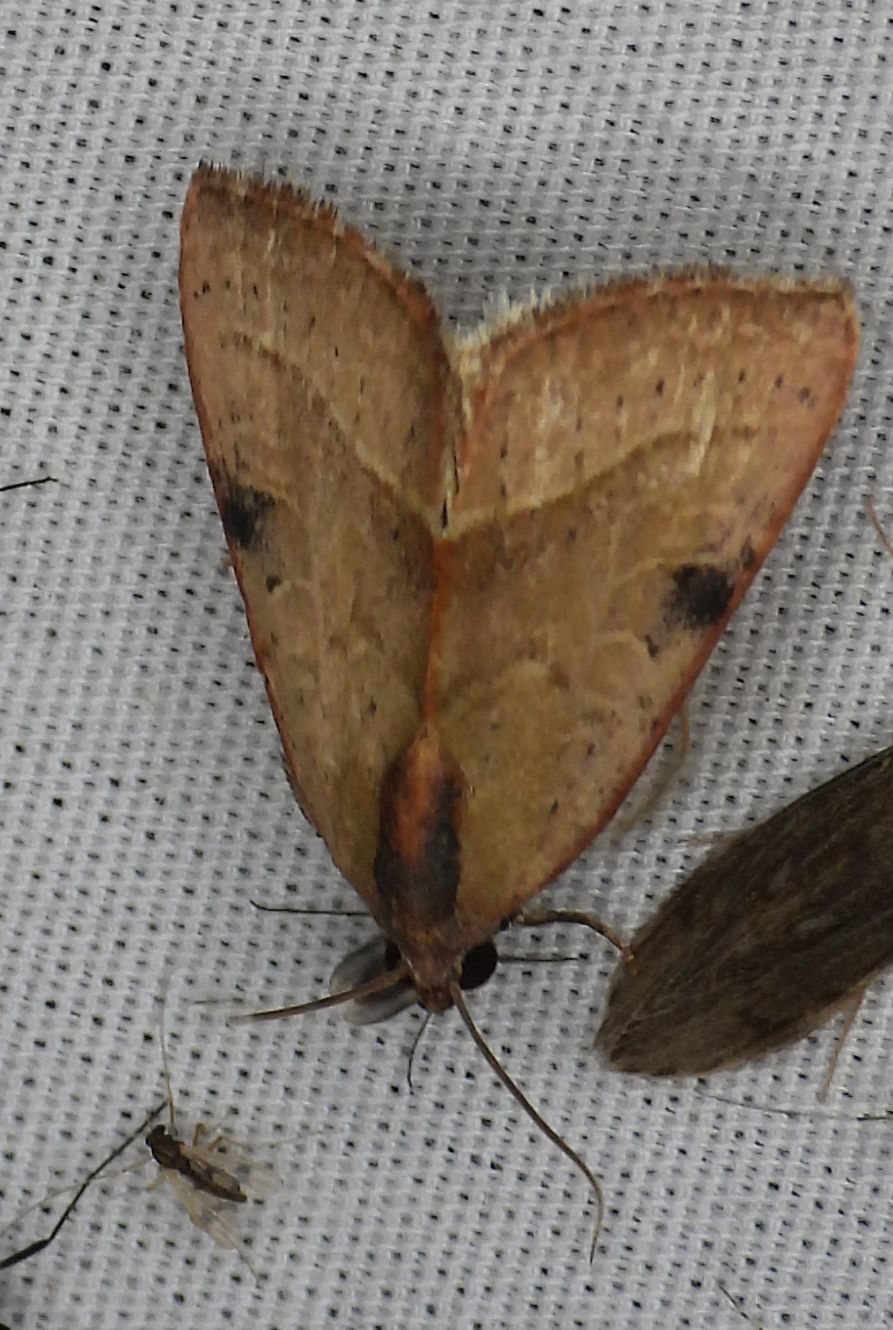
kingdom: Animalia
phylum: Arthropoda
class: Insecta
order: Lepidoptera
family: Noctuidae
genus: Galgula
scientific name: Galgula partita
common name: Wedgeling
